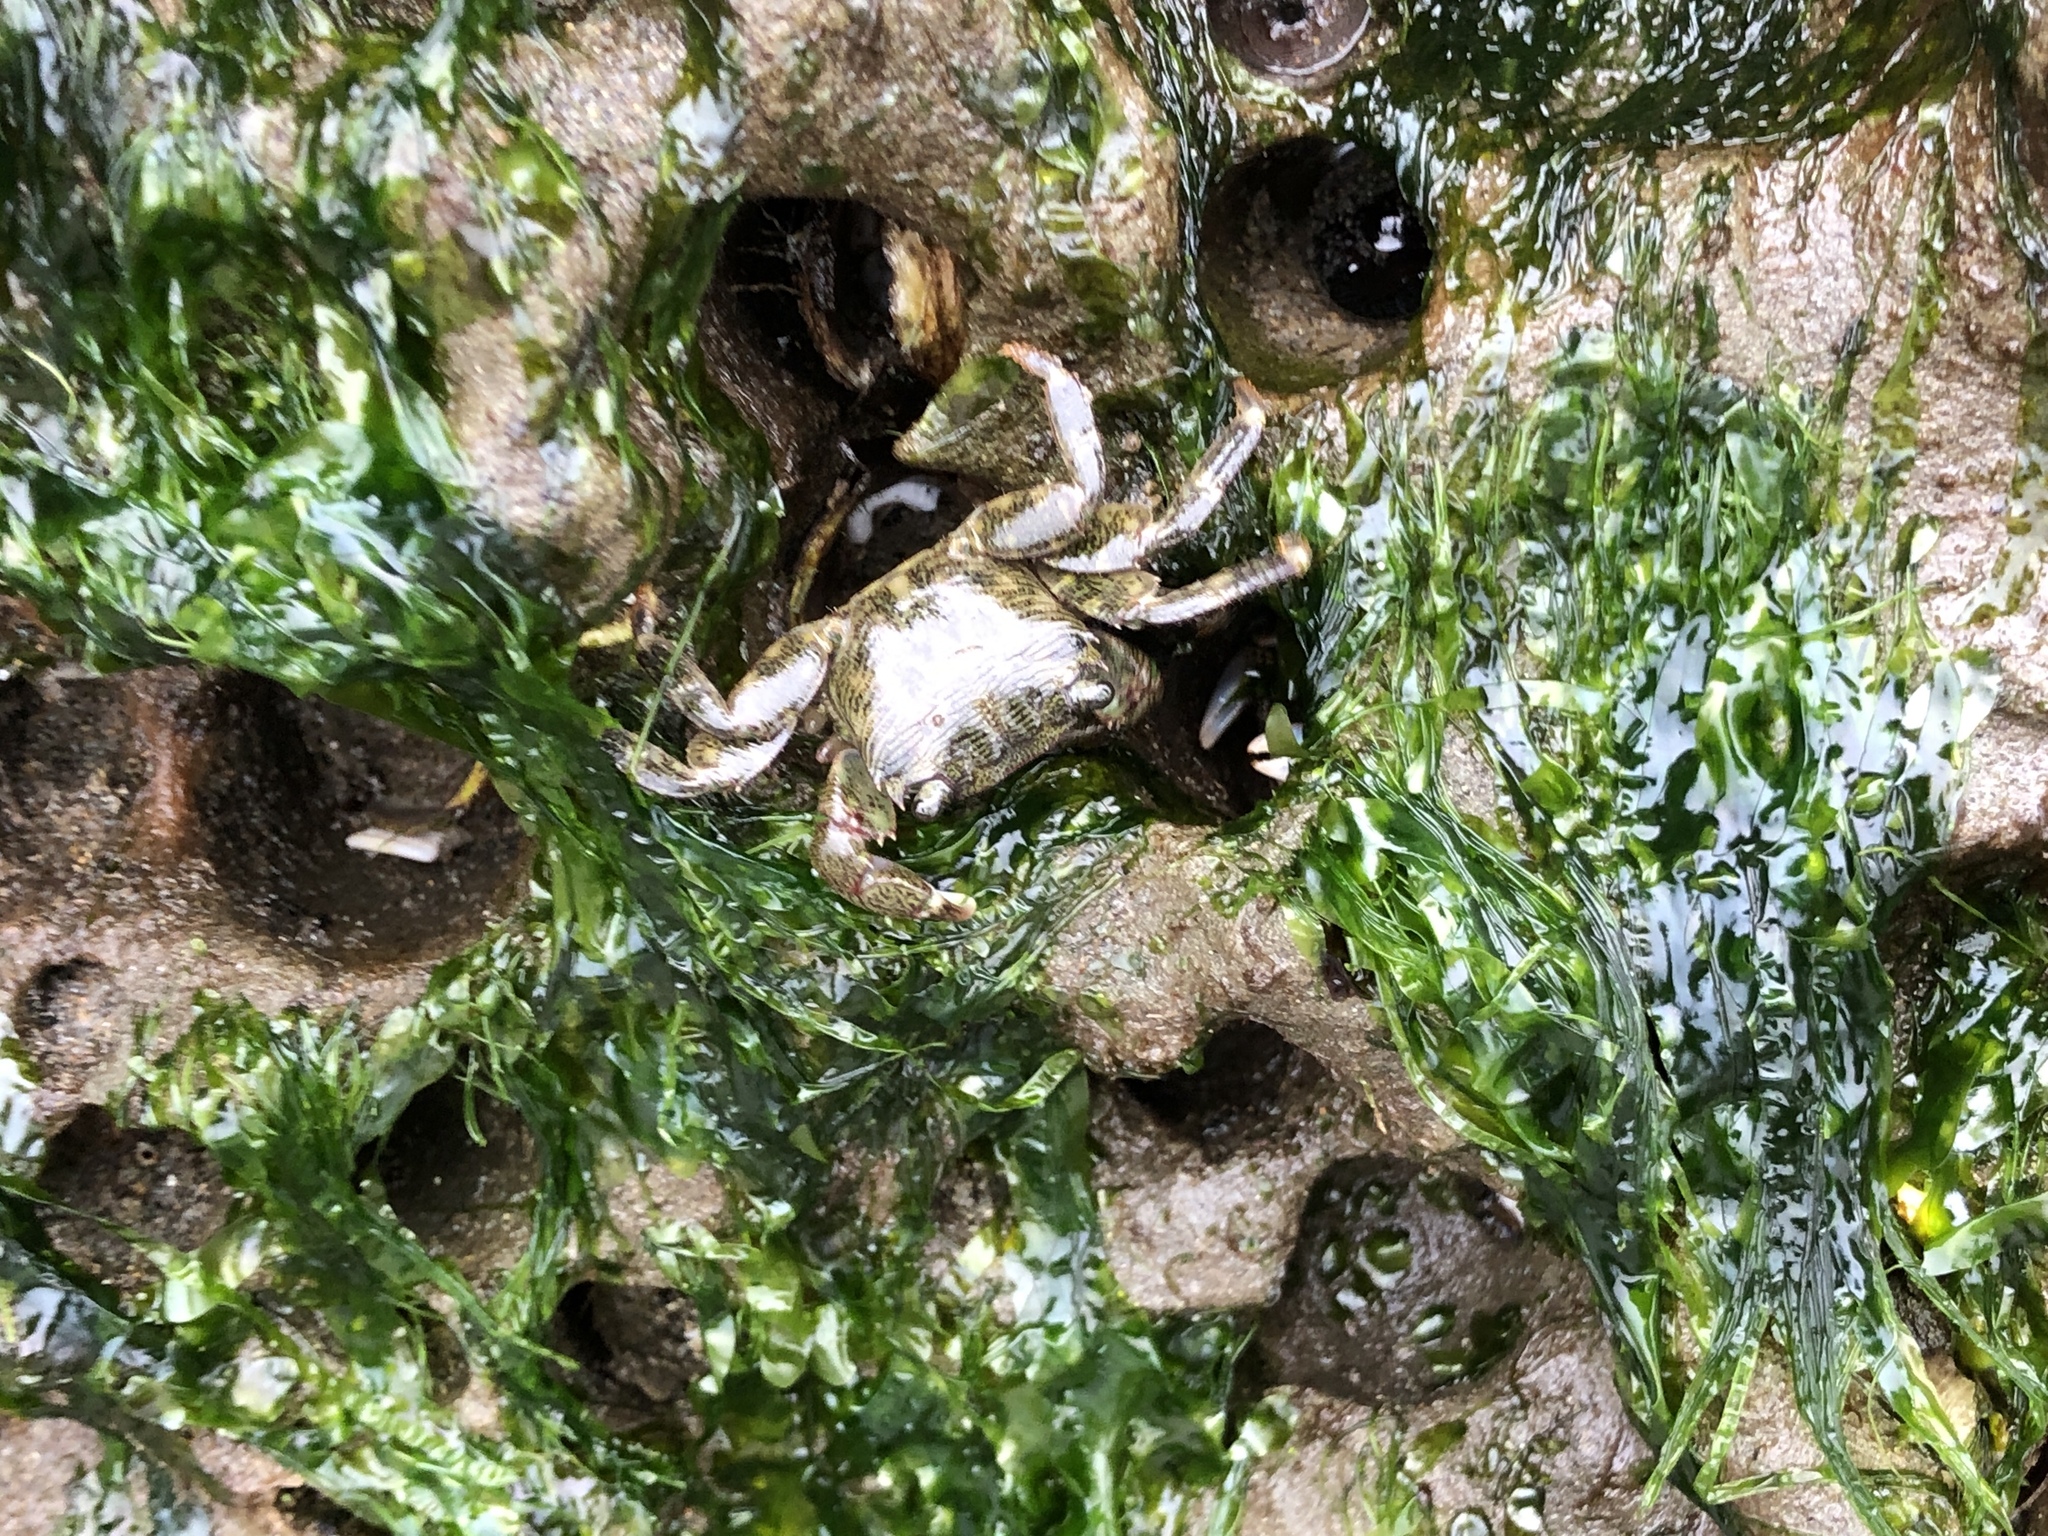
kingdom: Animalia
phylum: Arthropoda
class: Malacostraca
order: Decapoda
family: Grapsidae
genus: Pachygrapsus
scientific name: Pachygrapsus crassipes
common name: Striped shore crab
